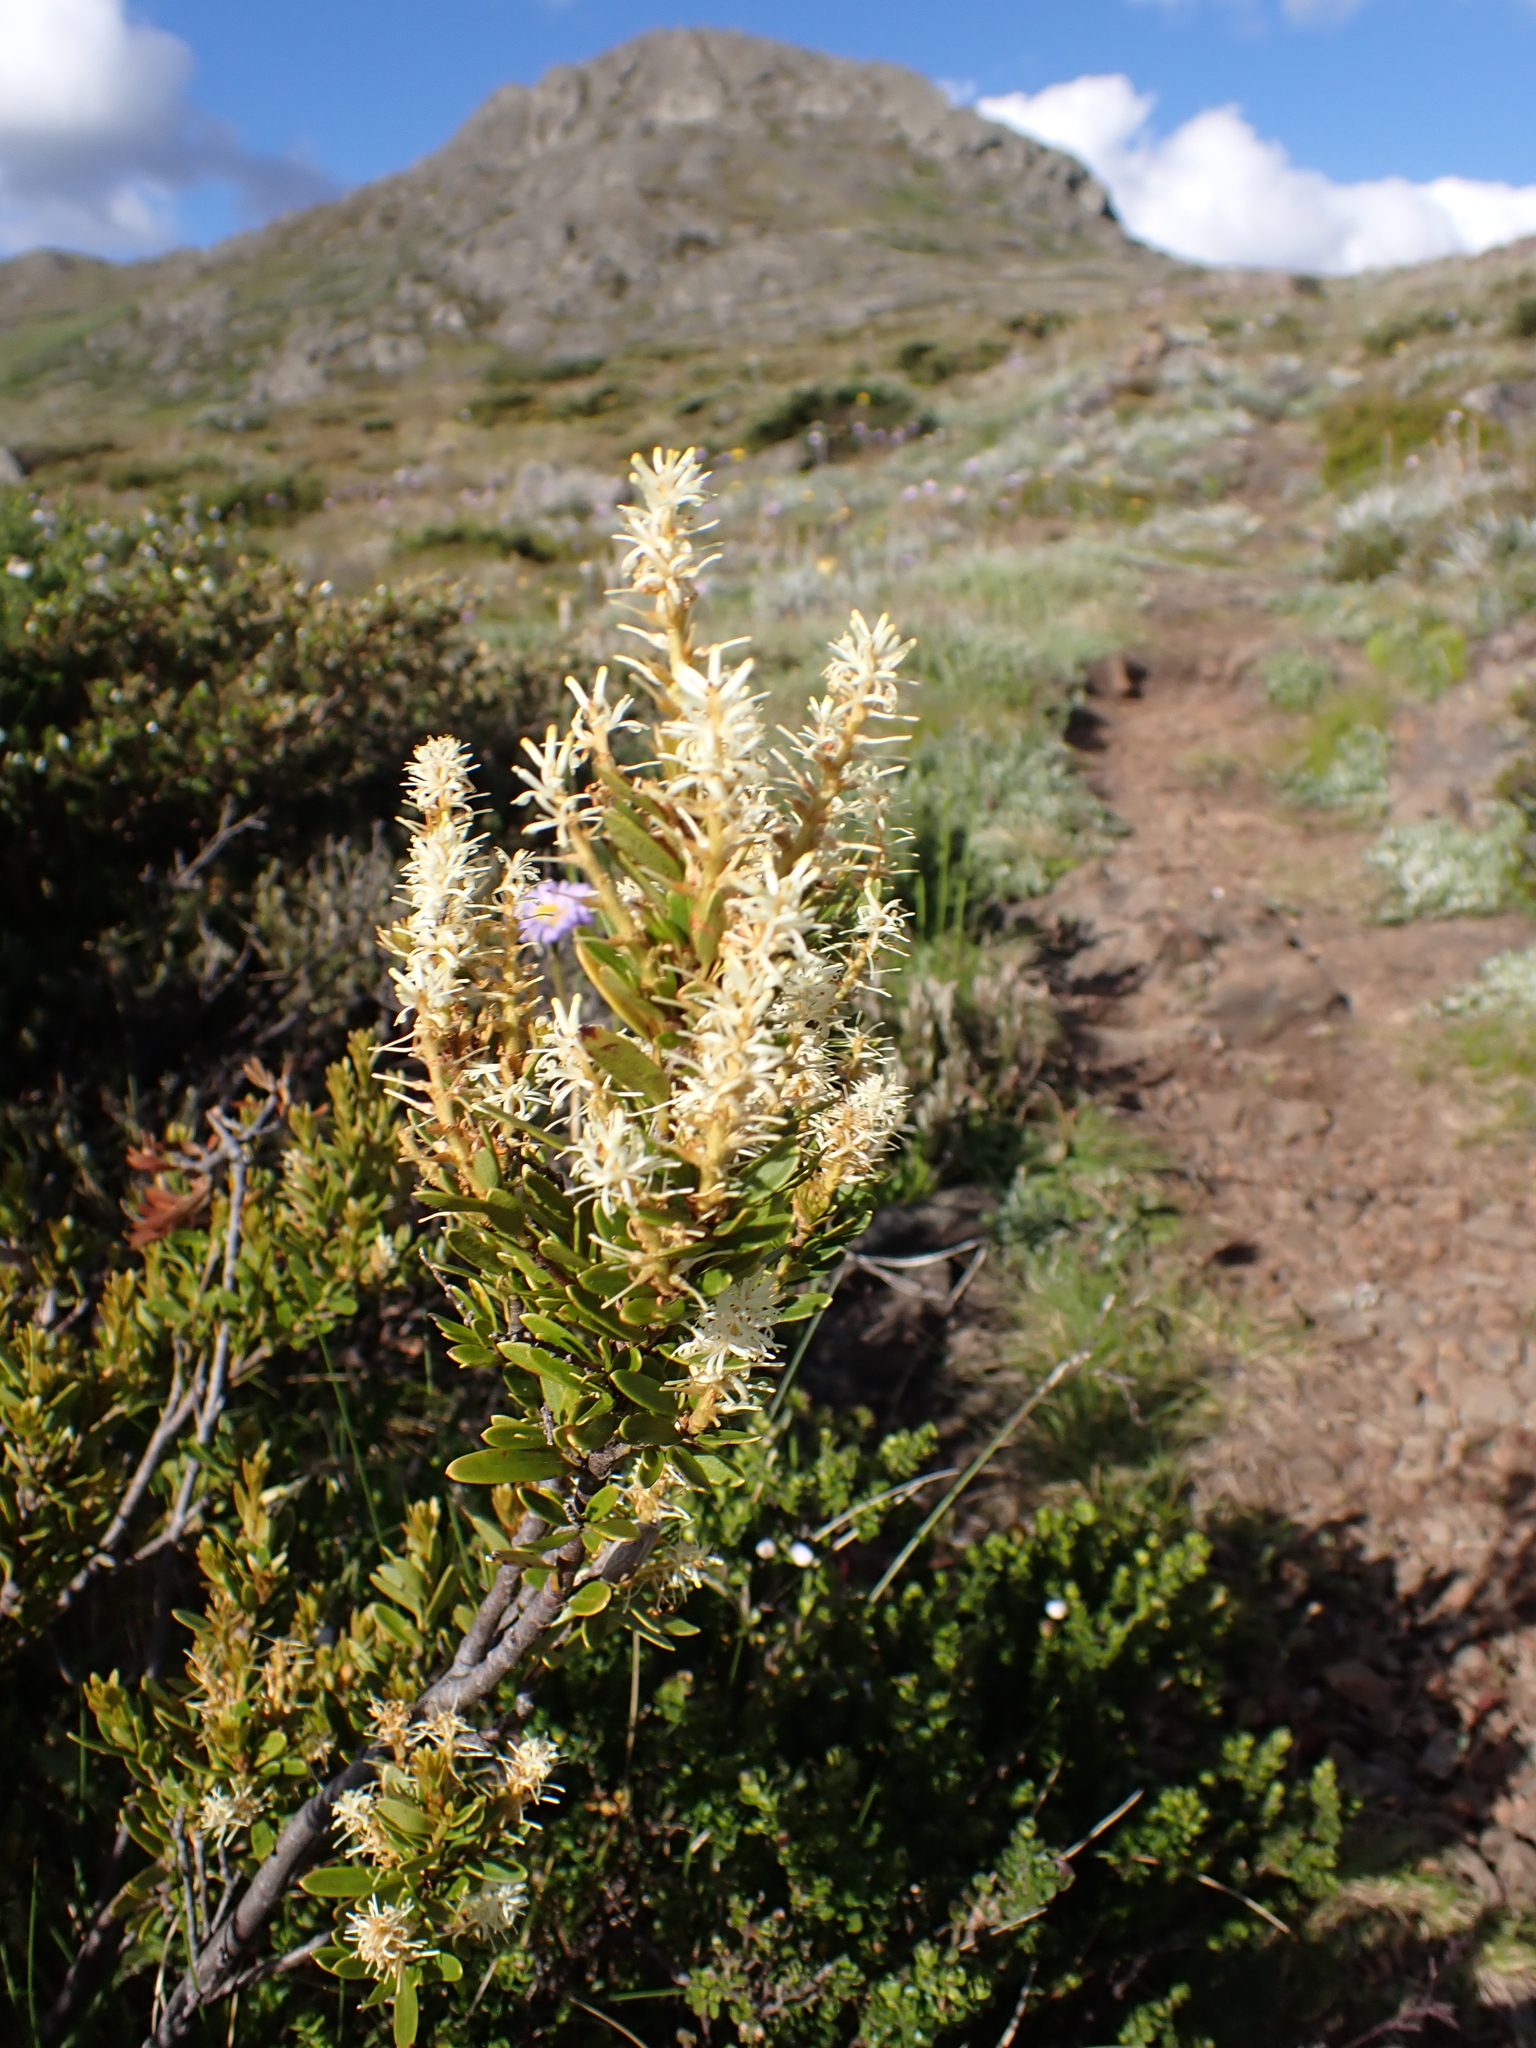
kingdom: Plantae
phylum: Tracheophyta
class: Magnoliopsida
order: Proteales
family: Proteaceae
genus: Orites
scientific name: Orites lancifolius
